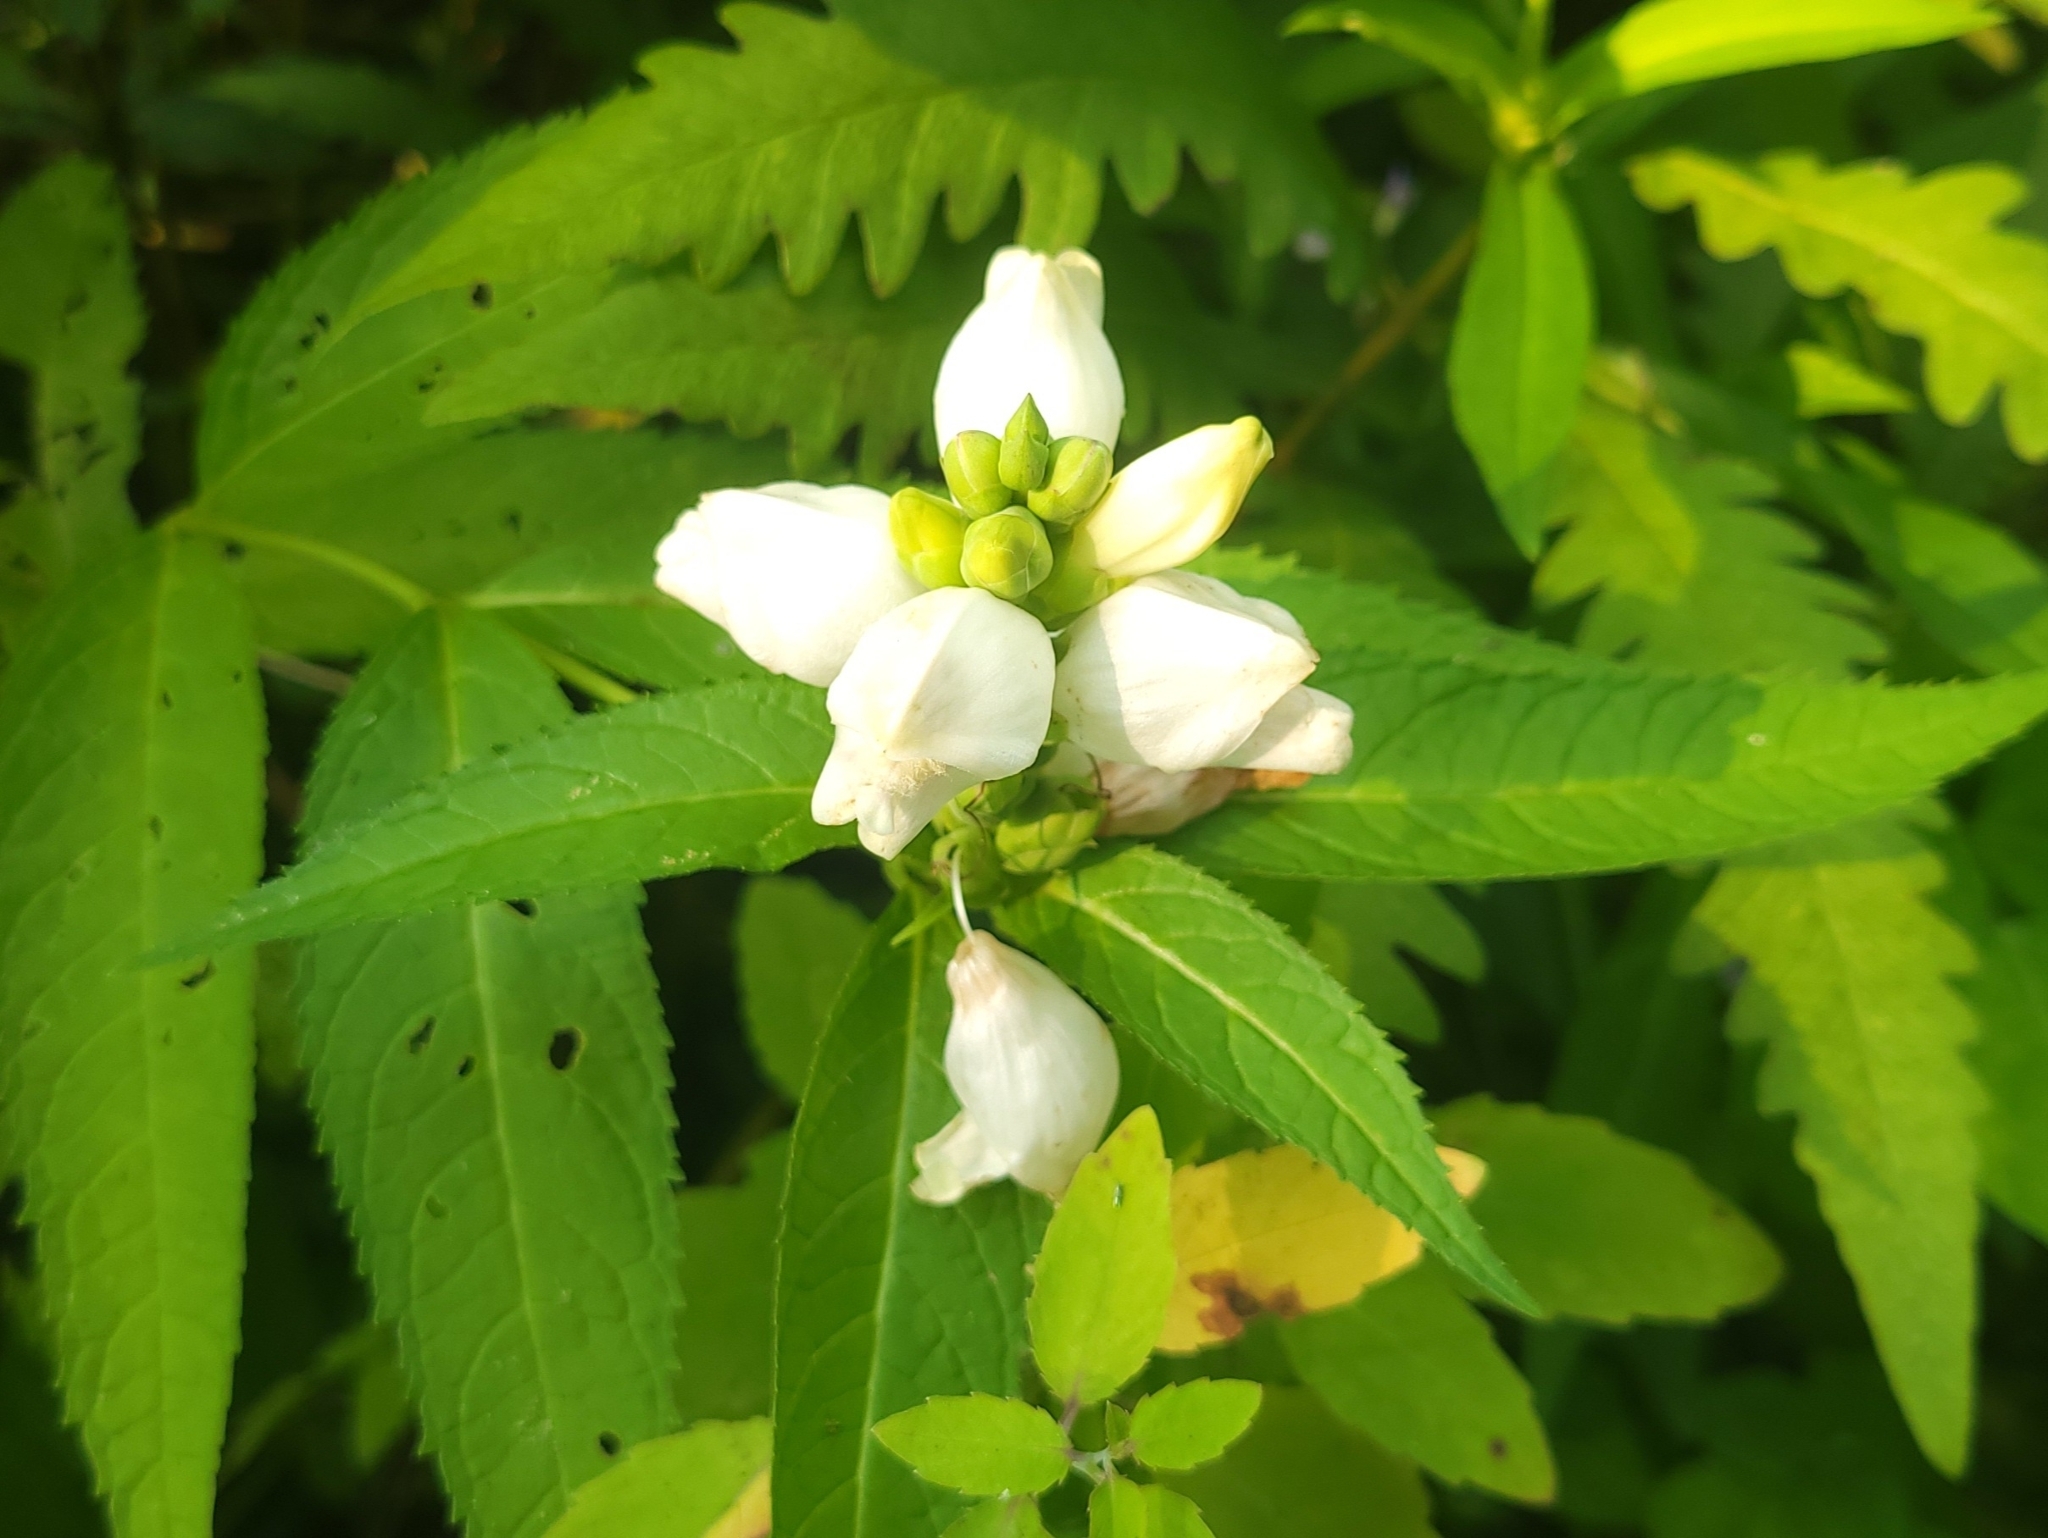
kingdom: Plantae
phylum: Tracheophyta
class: Magnoliopsida
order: Lamiales
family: Plantaginaceae
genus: Chelone
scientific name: Chelone glabra
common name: Snakehead
